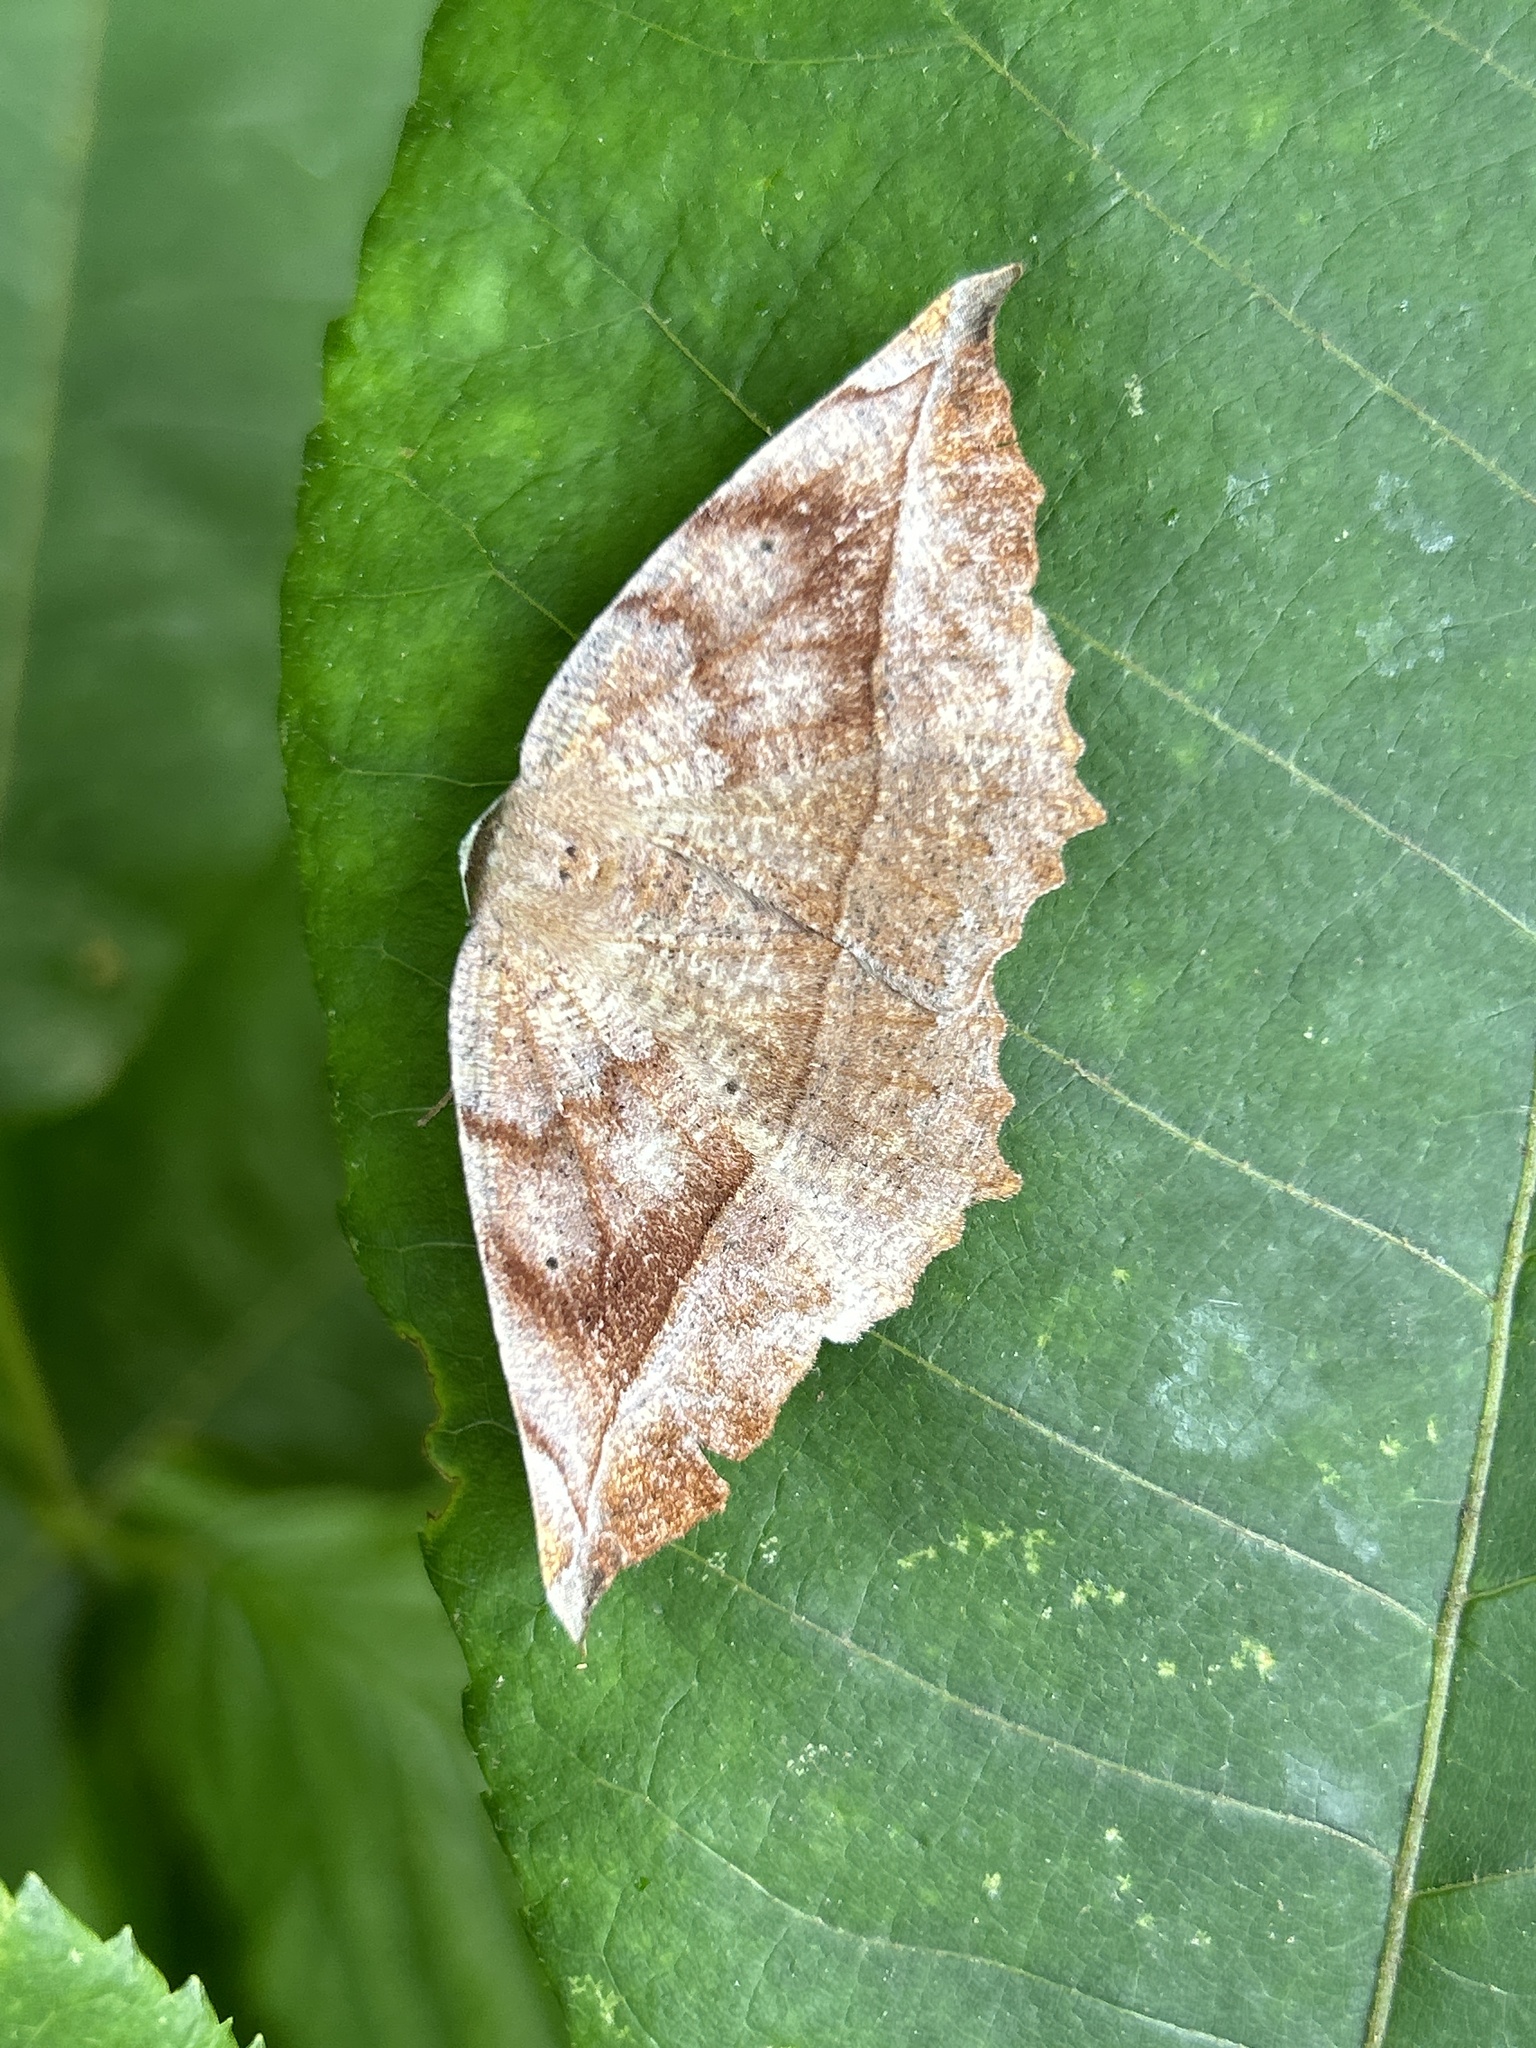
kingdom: Animalia
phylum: Arthropoda
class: Insecta
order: Lepidoptera
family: Geometridae
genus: Eutrapela
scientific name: Eutrapela clemataria
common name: Curved-toothed geometer
